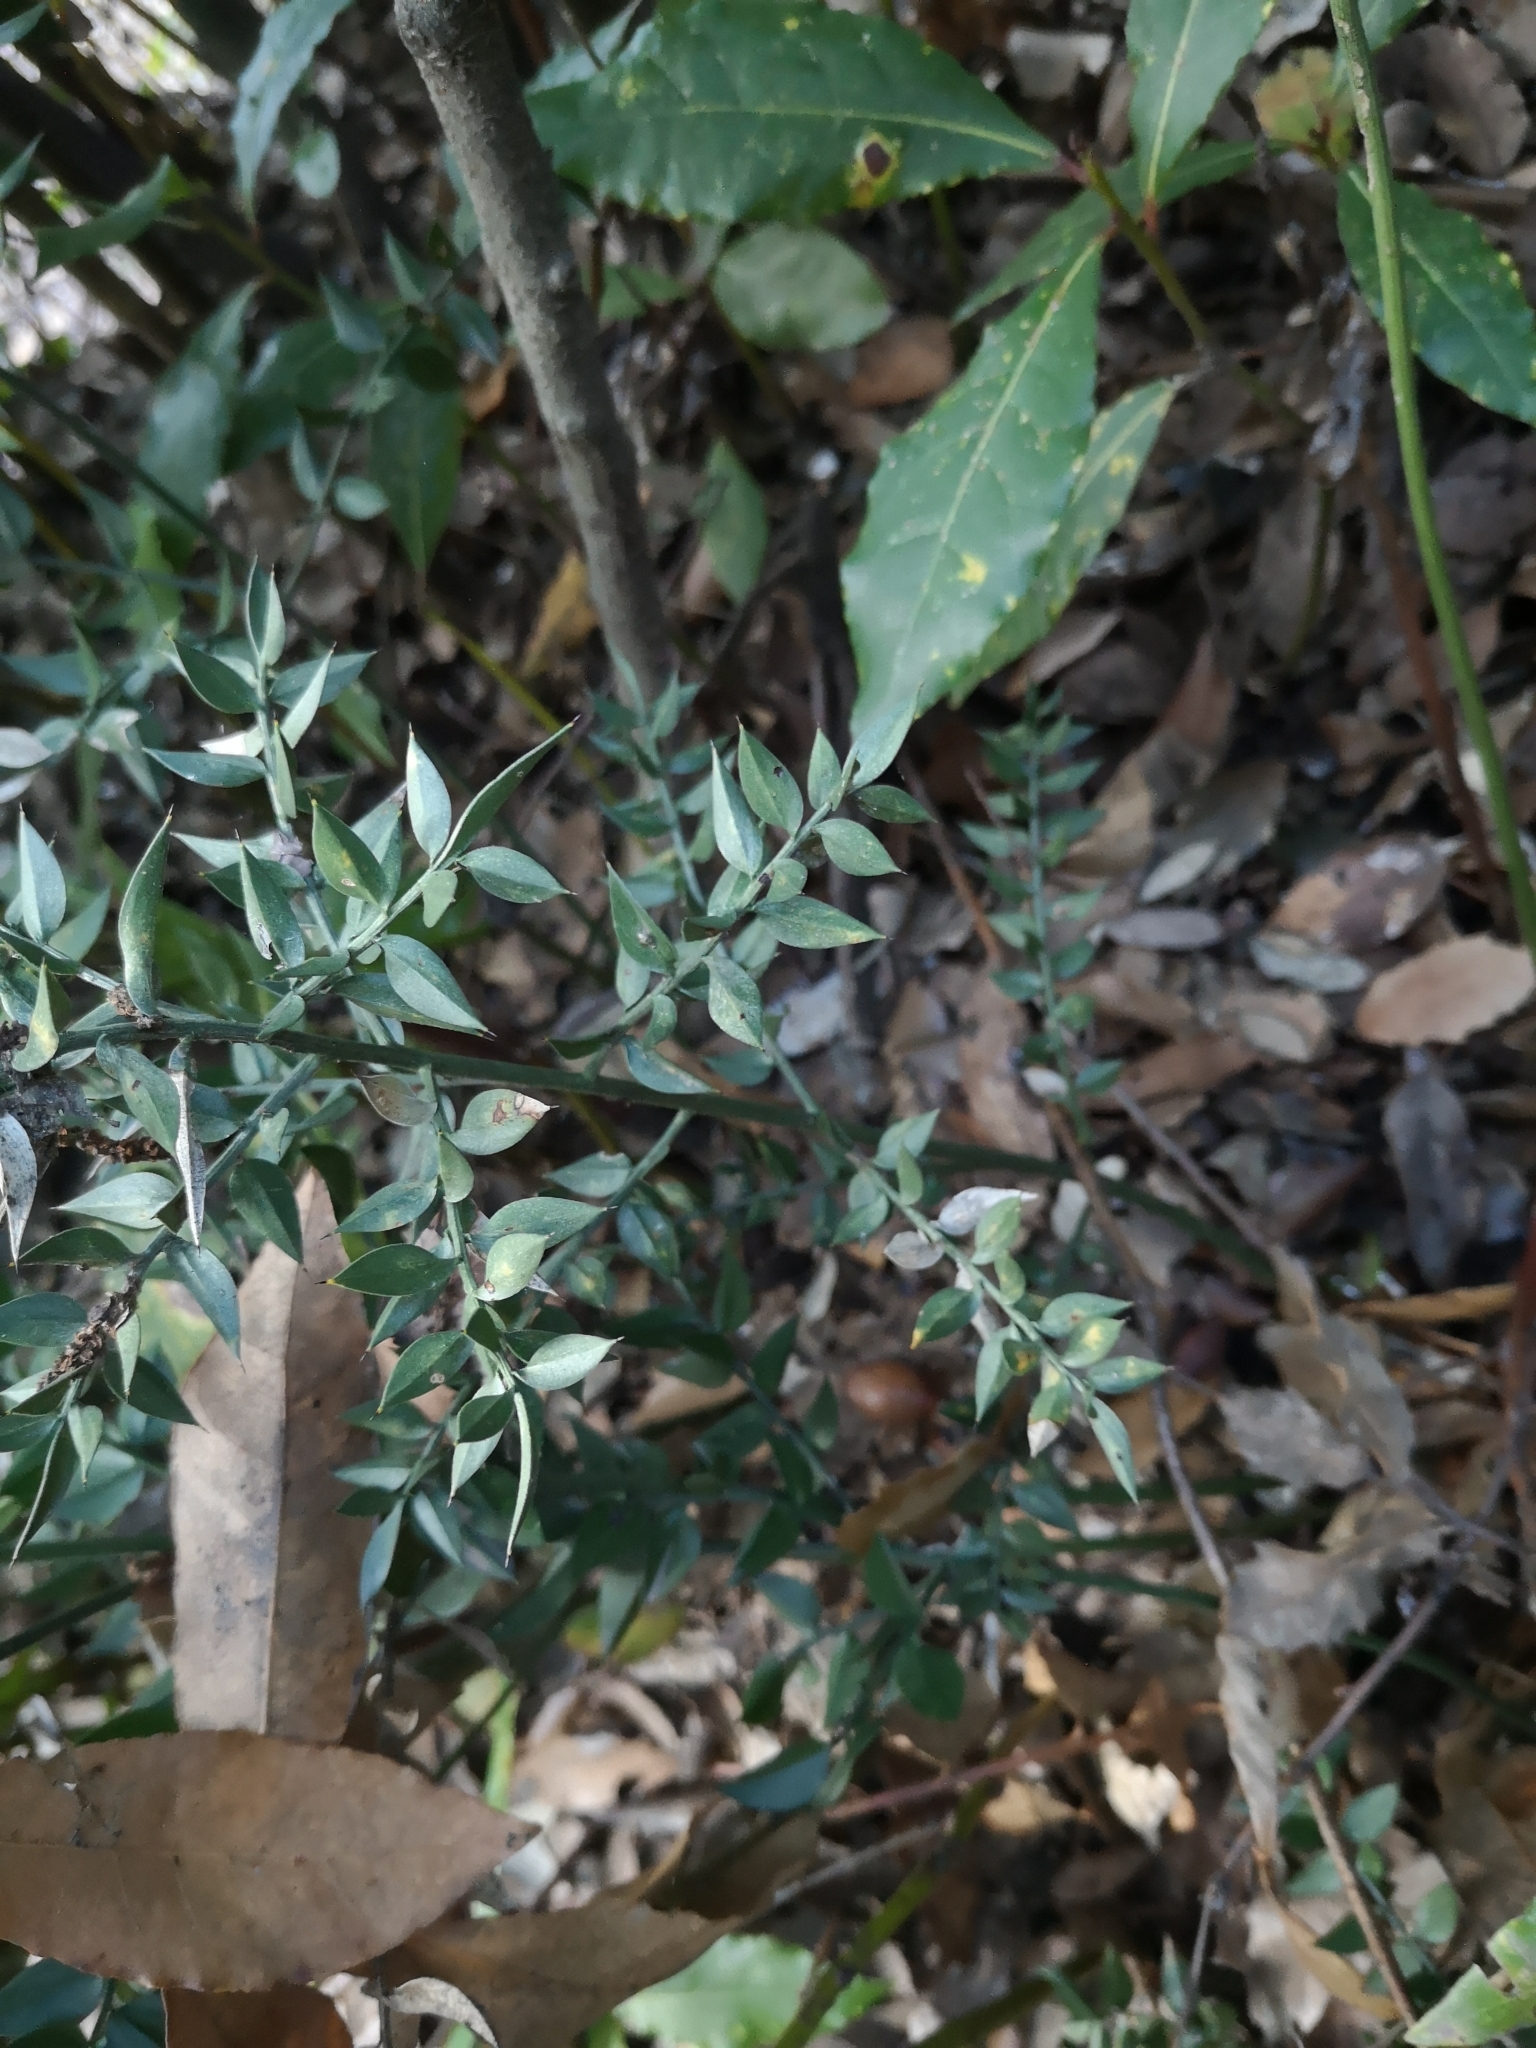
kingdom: Plantae
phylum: Tracheophyta
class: Liliopsida
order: Asparagales
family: Asparagaceae
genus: Ruscus
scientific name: Ruscus aculeatus
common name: Butcher's-broom
